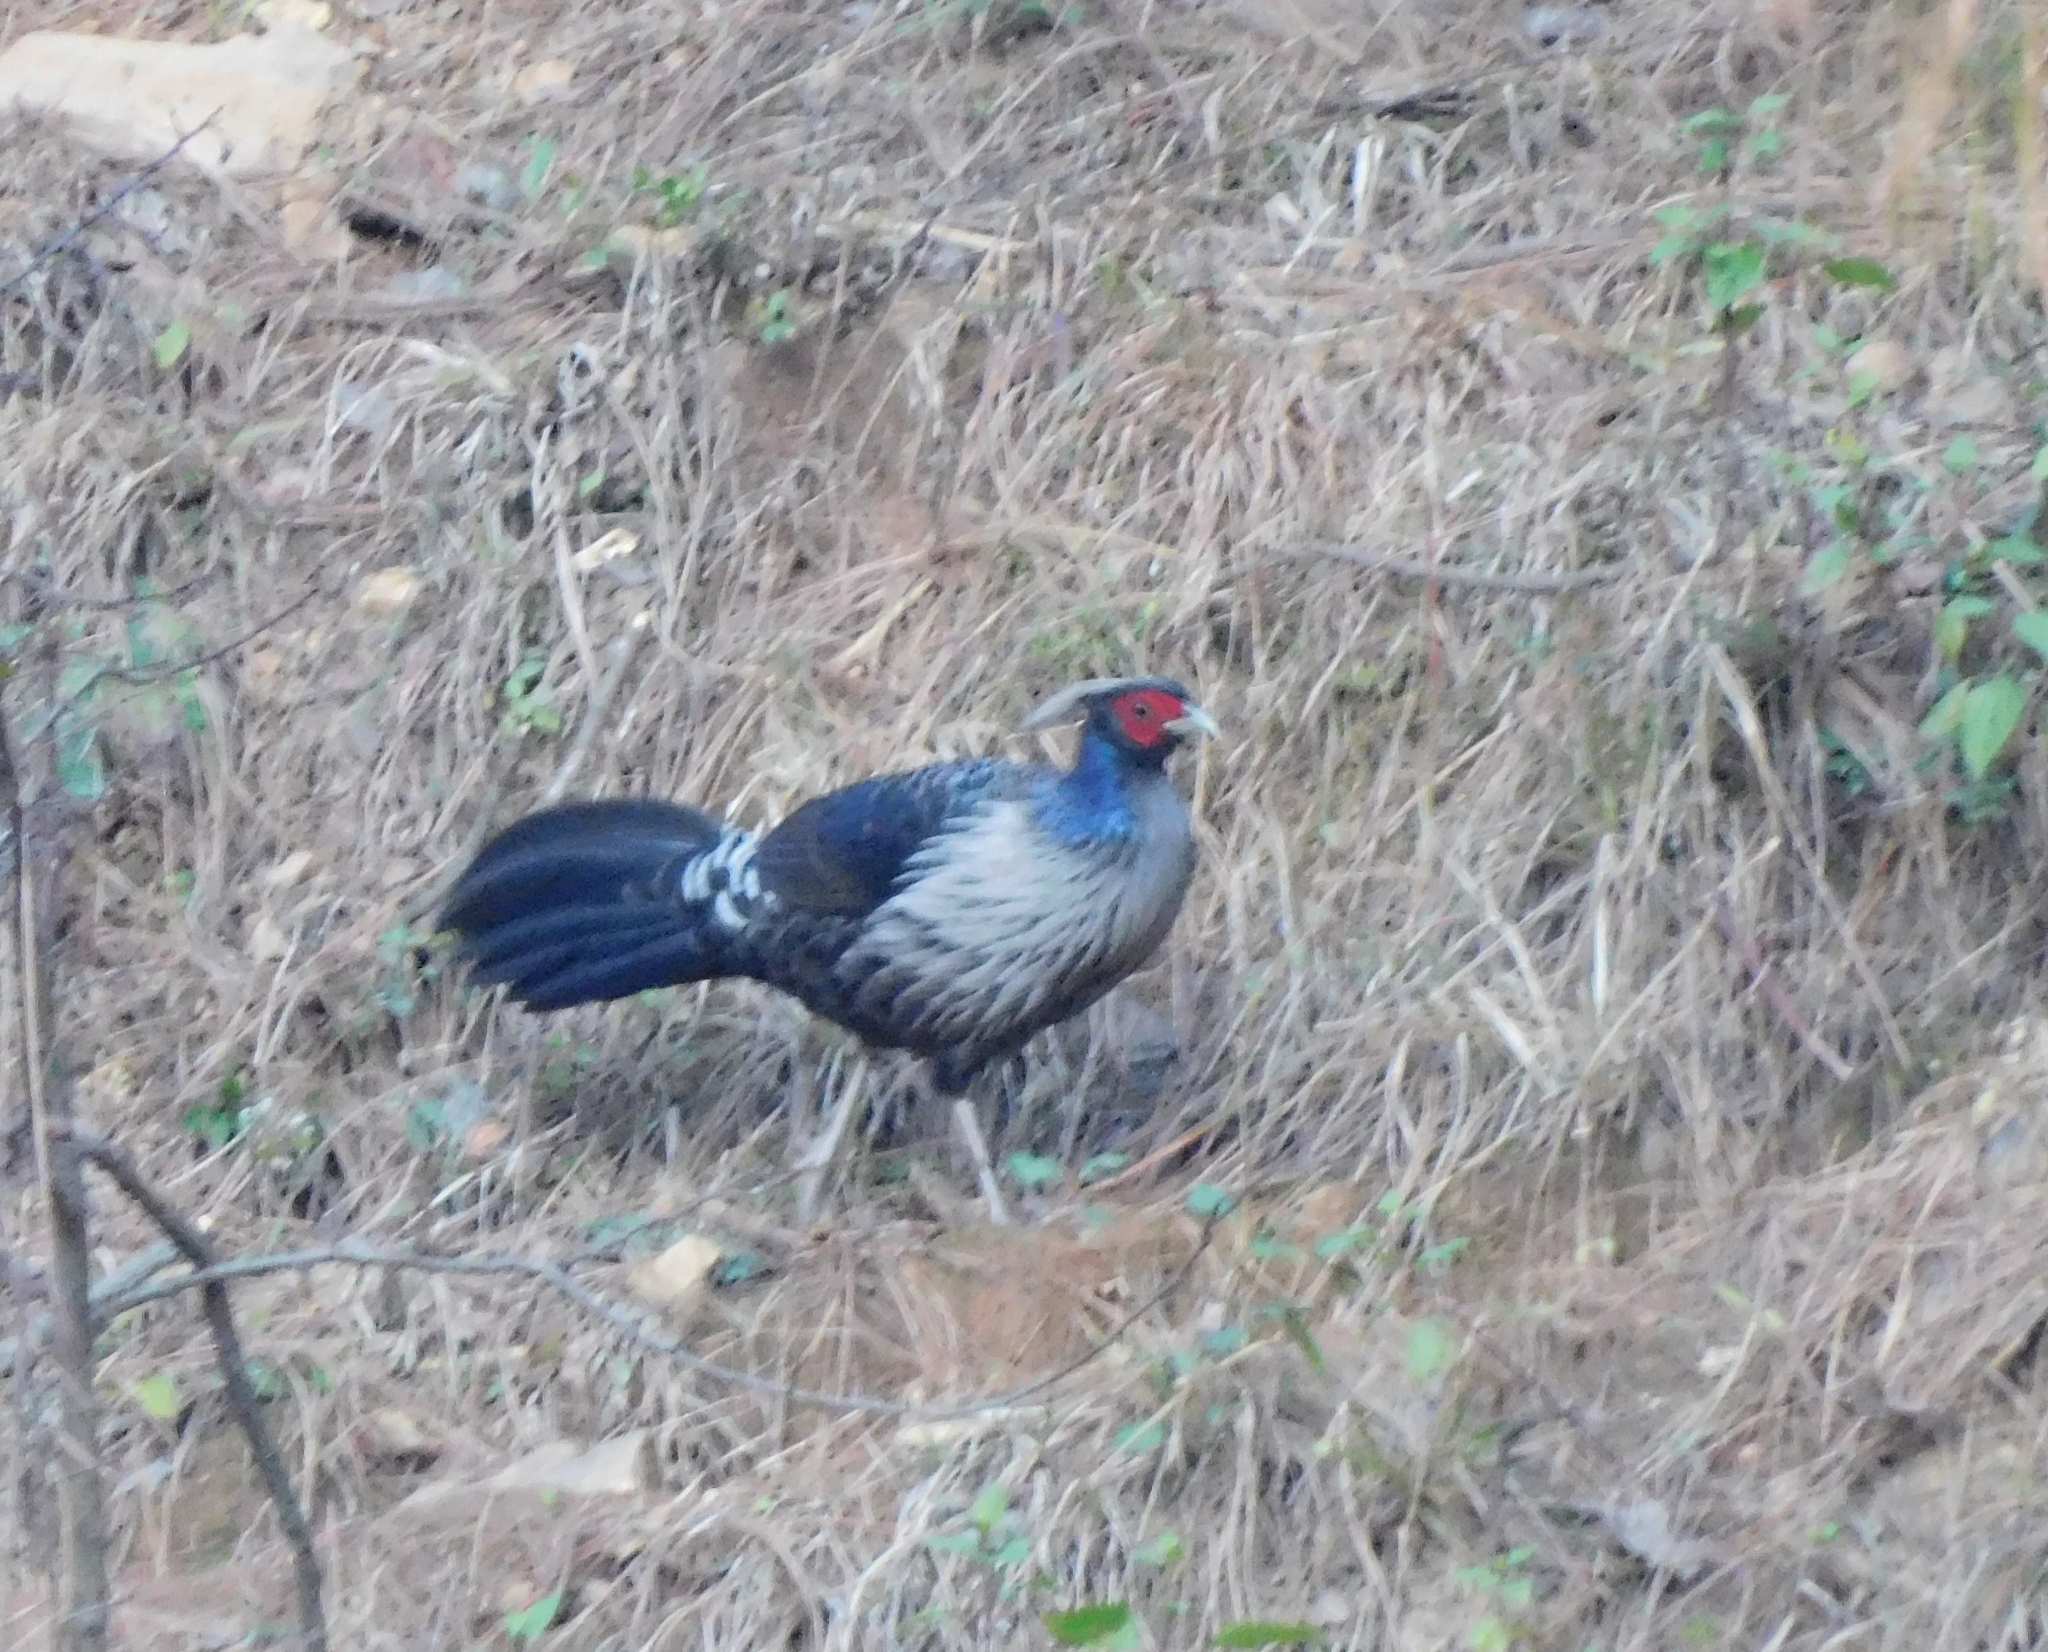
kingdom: Animalia
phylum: Chordata
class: Aves
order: Galliformes
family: Phasianidae
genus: Lophura
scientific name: Lophura leucomelanos
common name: Kalij pheasant
